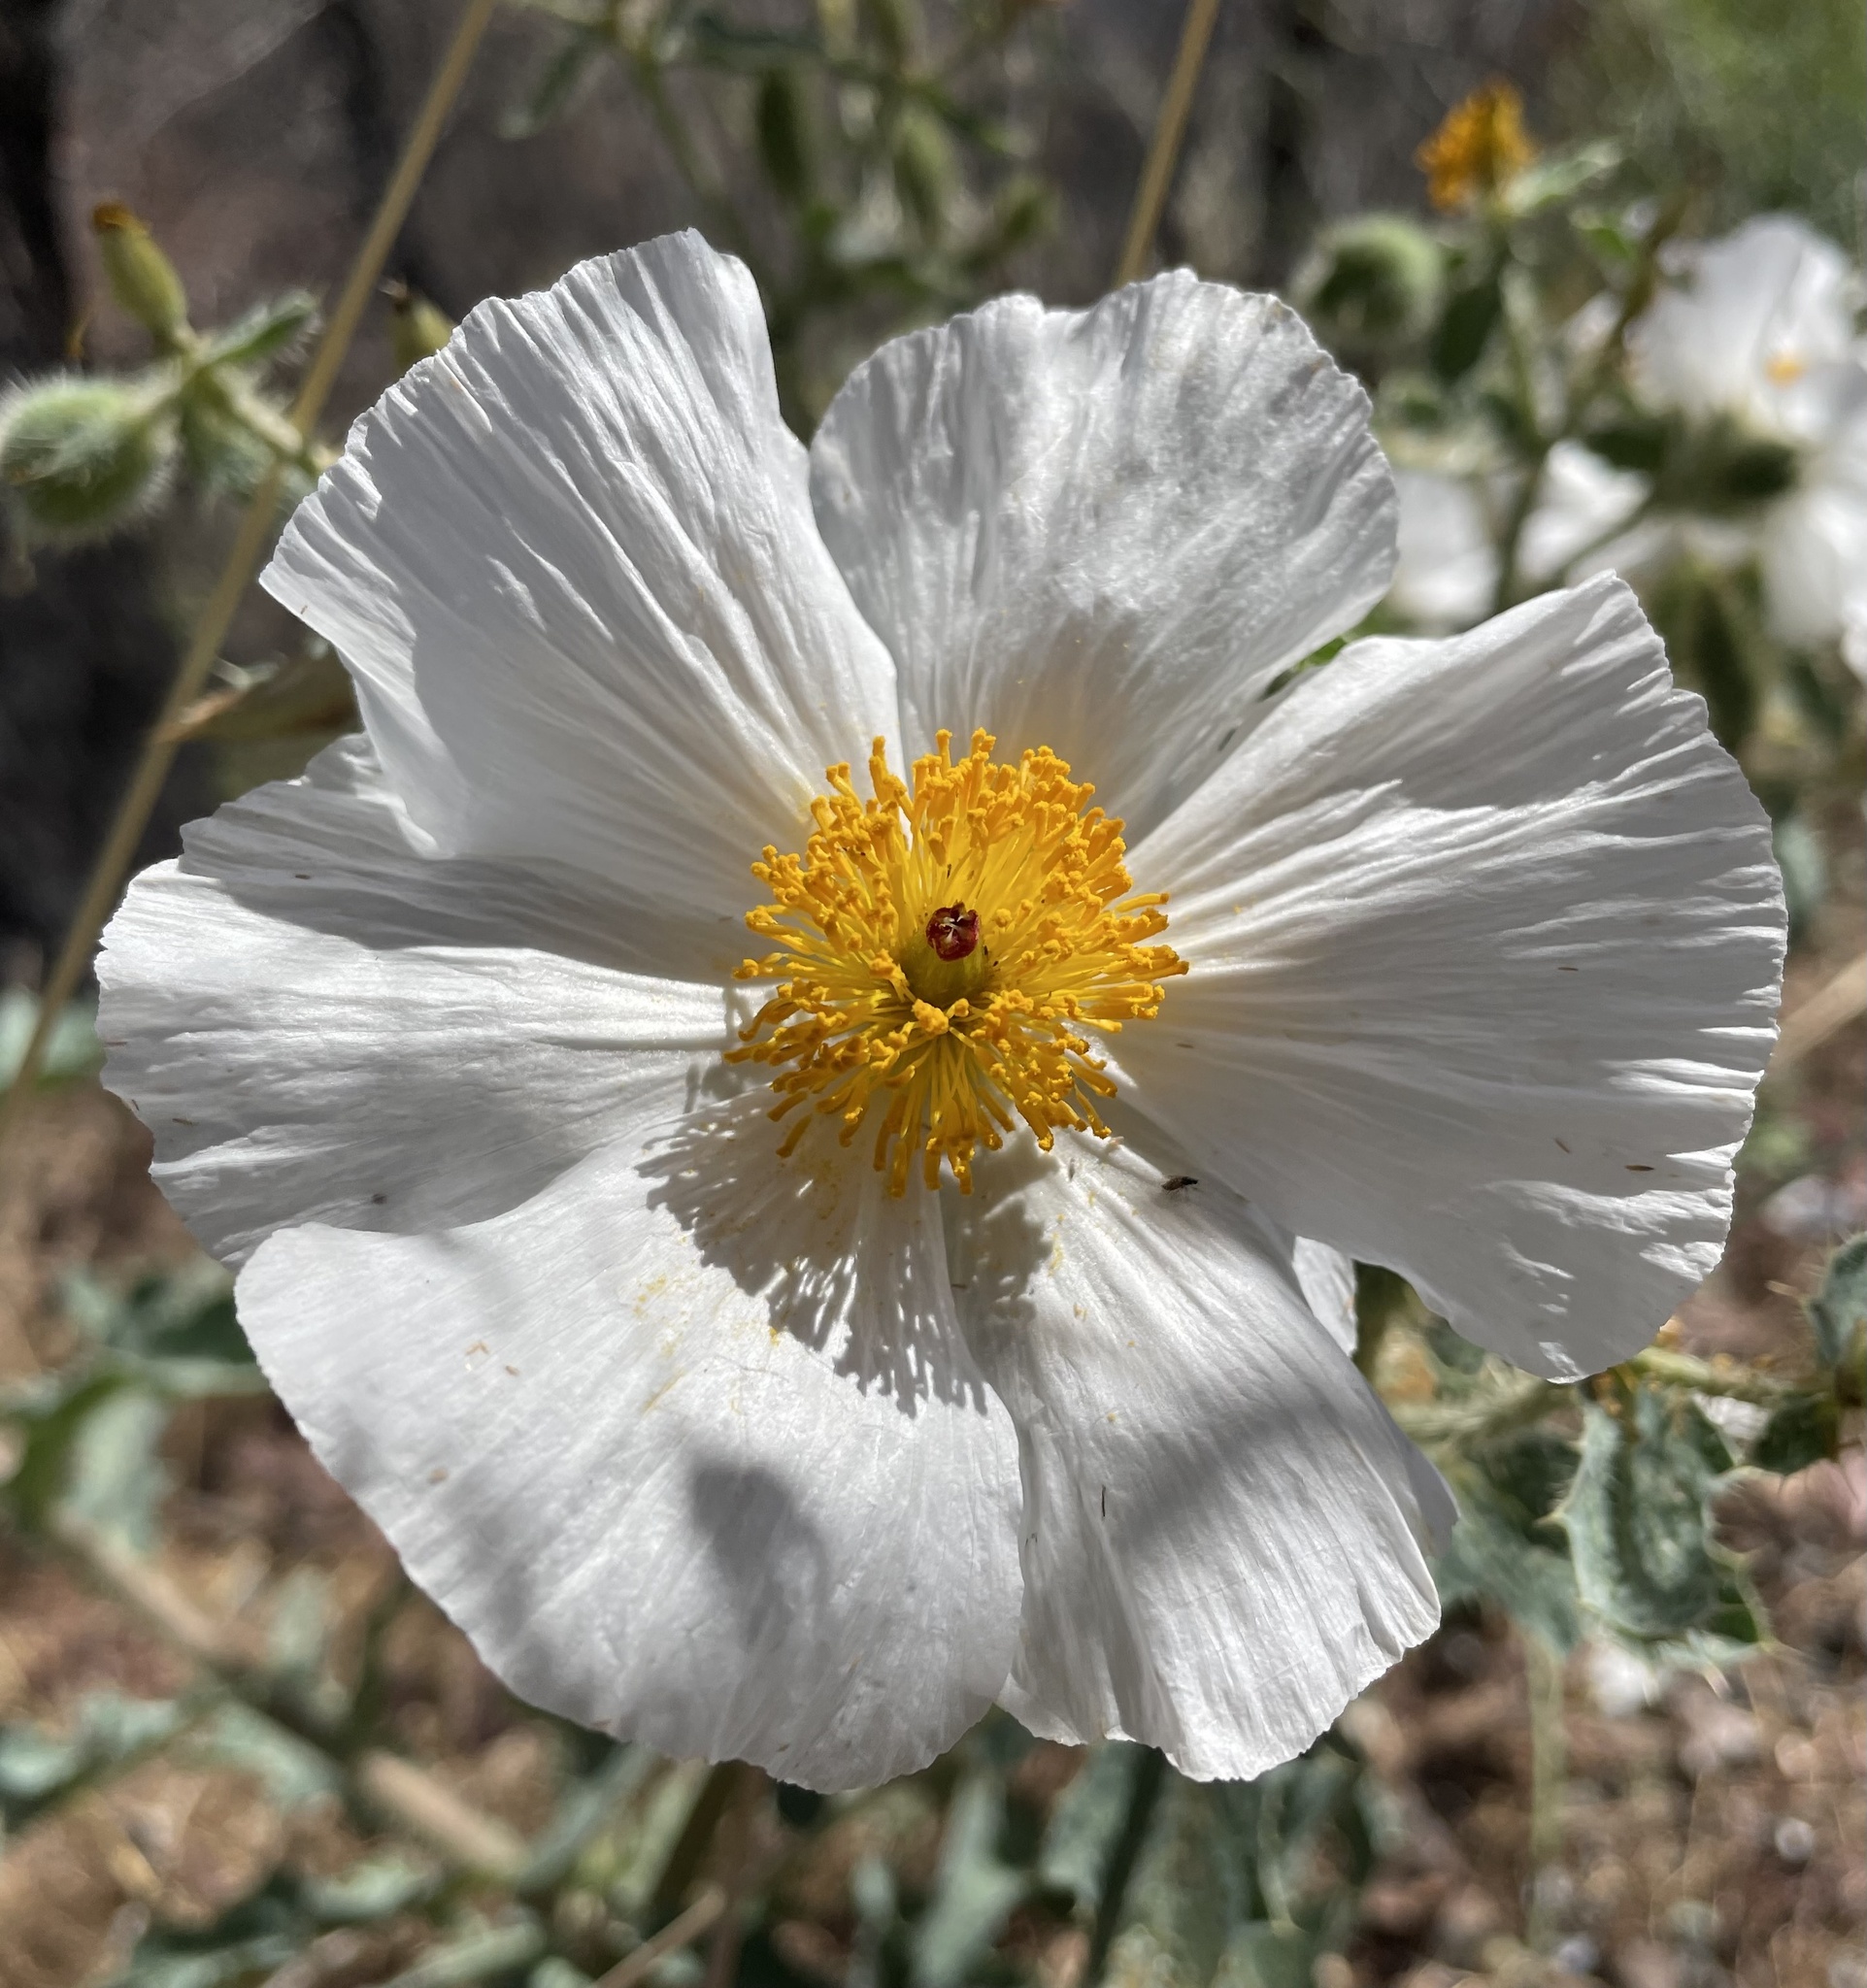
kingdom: Plantae
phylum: Tracheophyta
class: Magnoliopsida
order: Ranunculales
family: Papaveraceae
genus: Argemone
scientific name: Argemone munita
